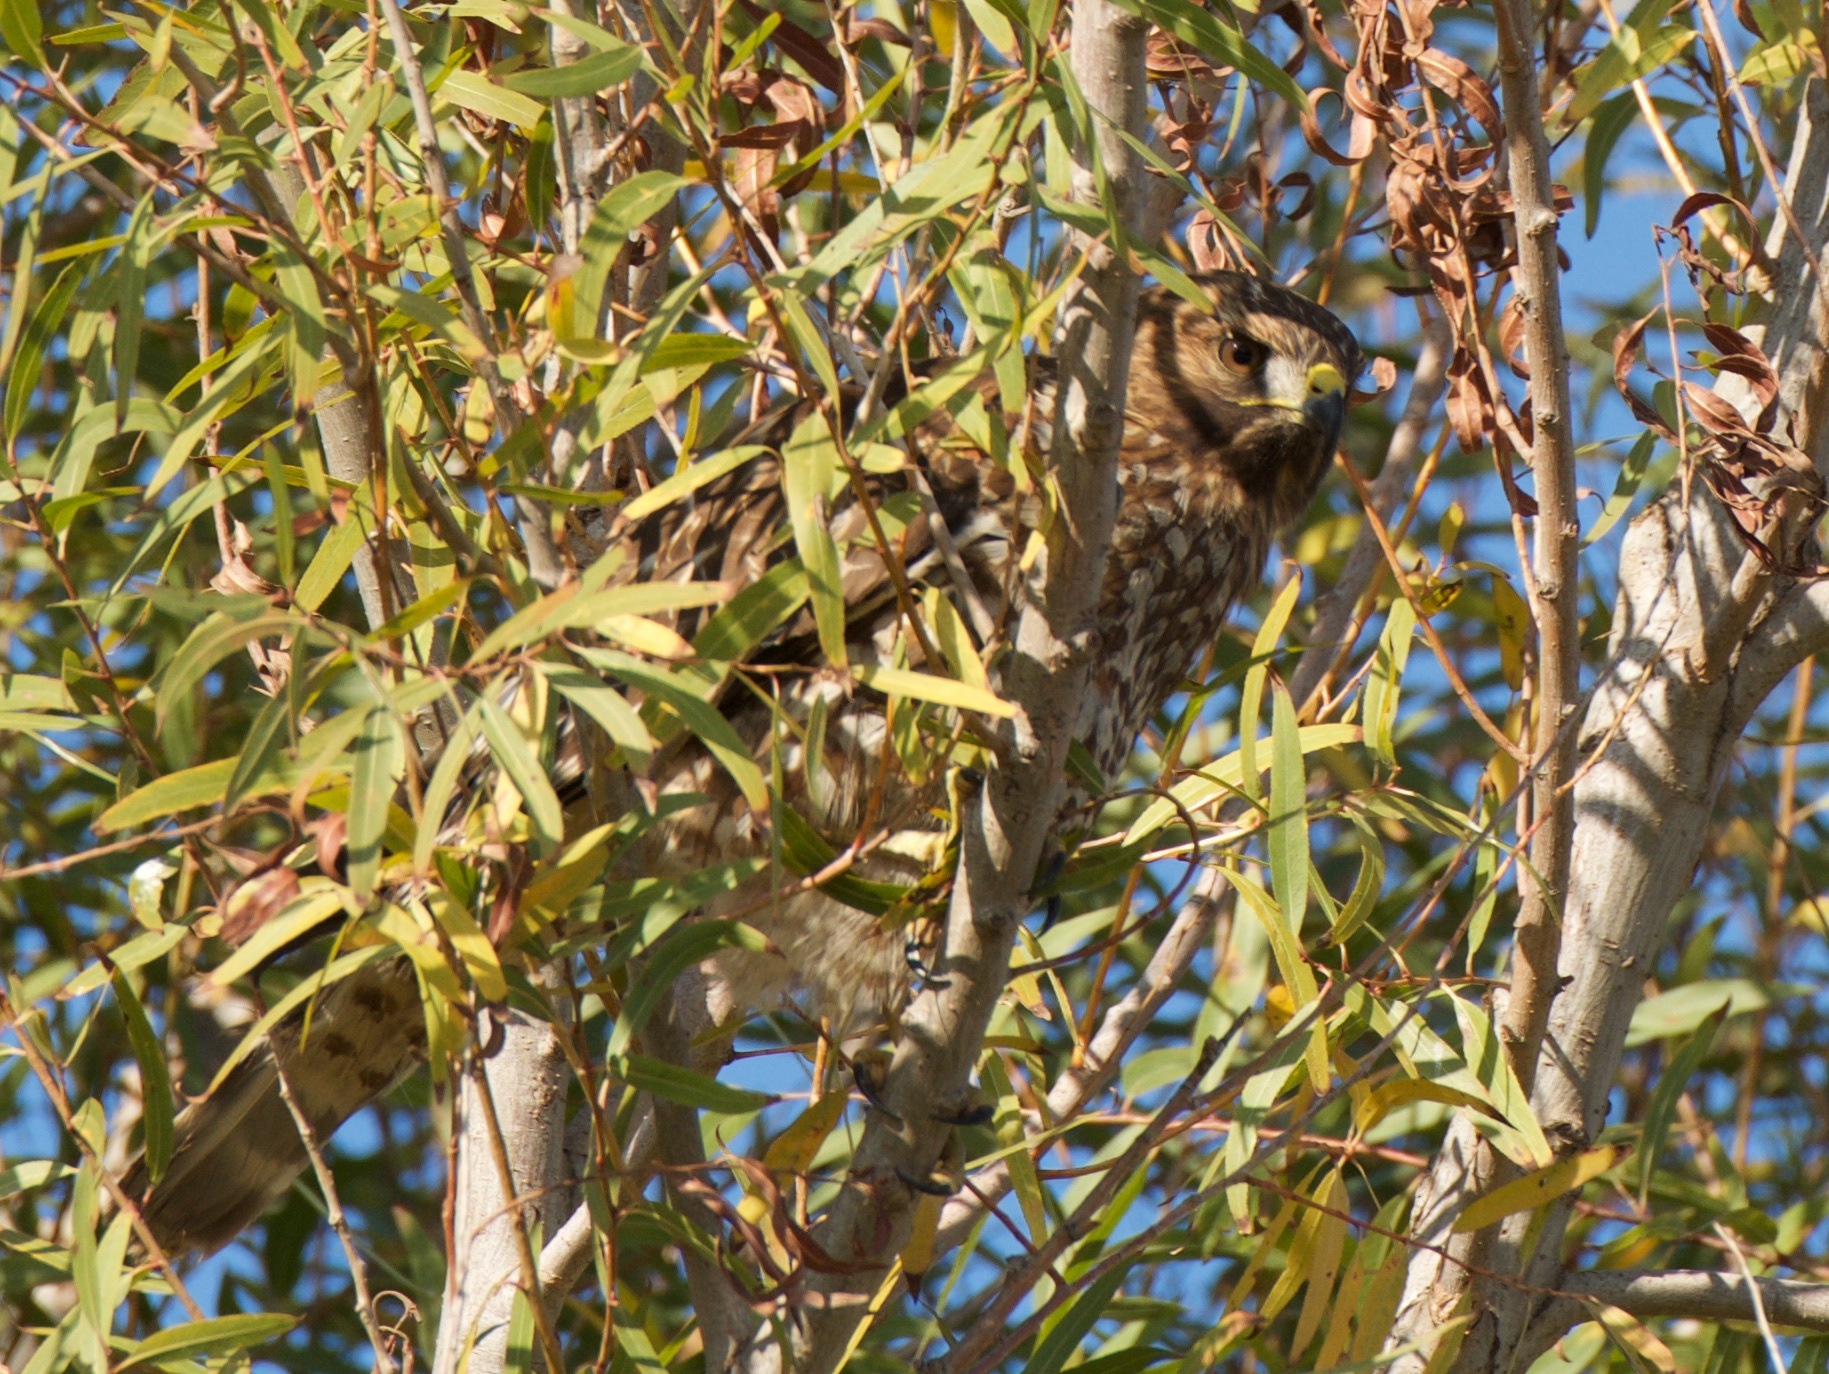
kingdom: Animalia
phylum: Chordata
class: Aves
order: Accipitriformes
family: Accipitridae
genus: Buteo
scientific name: Buteo lineatus
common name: Red-shouldered hawk
